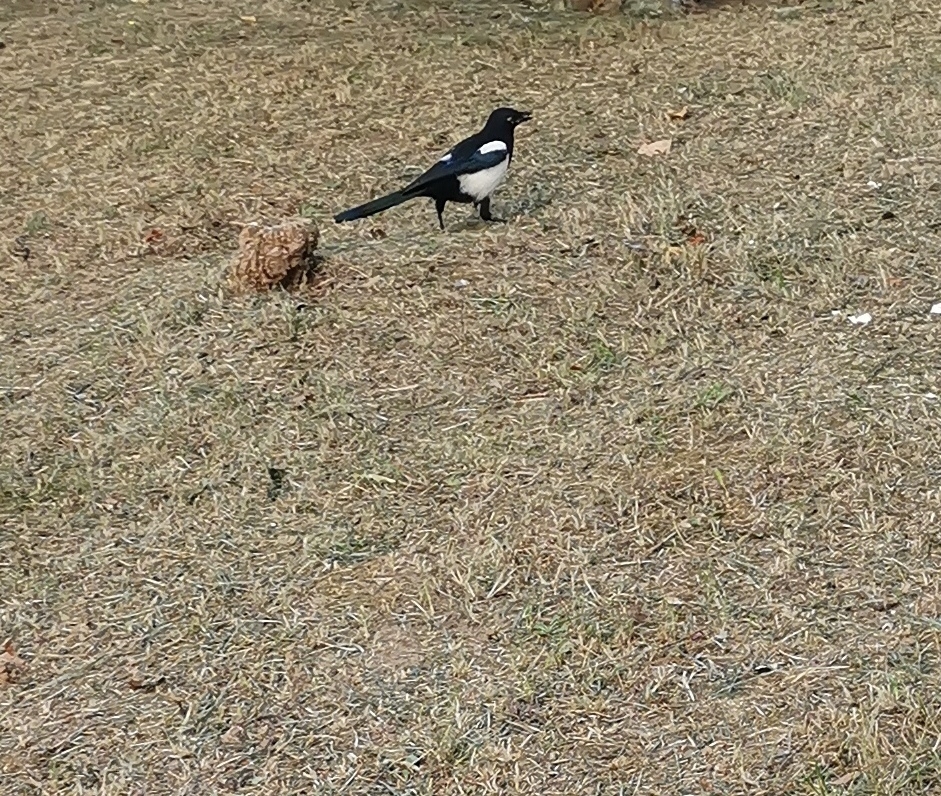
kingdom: Animalia
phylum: Chordata
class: Aves
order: Passeriformes
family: Corvidae
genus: Pica
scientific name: Pica pica
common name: Eurasian magpie
